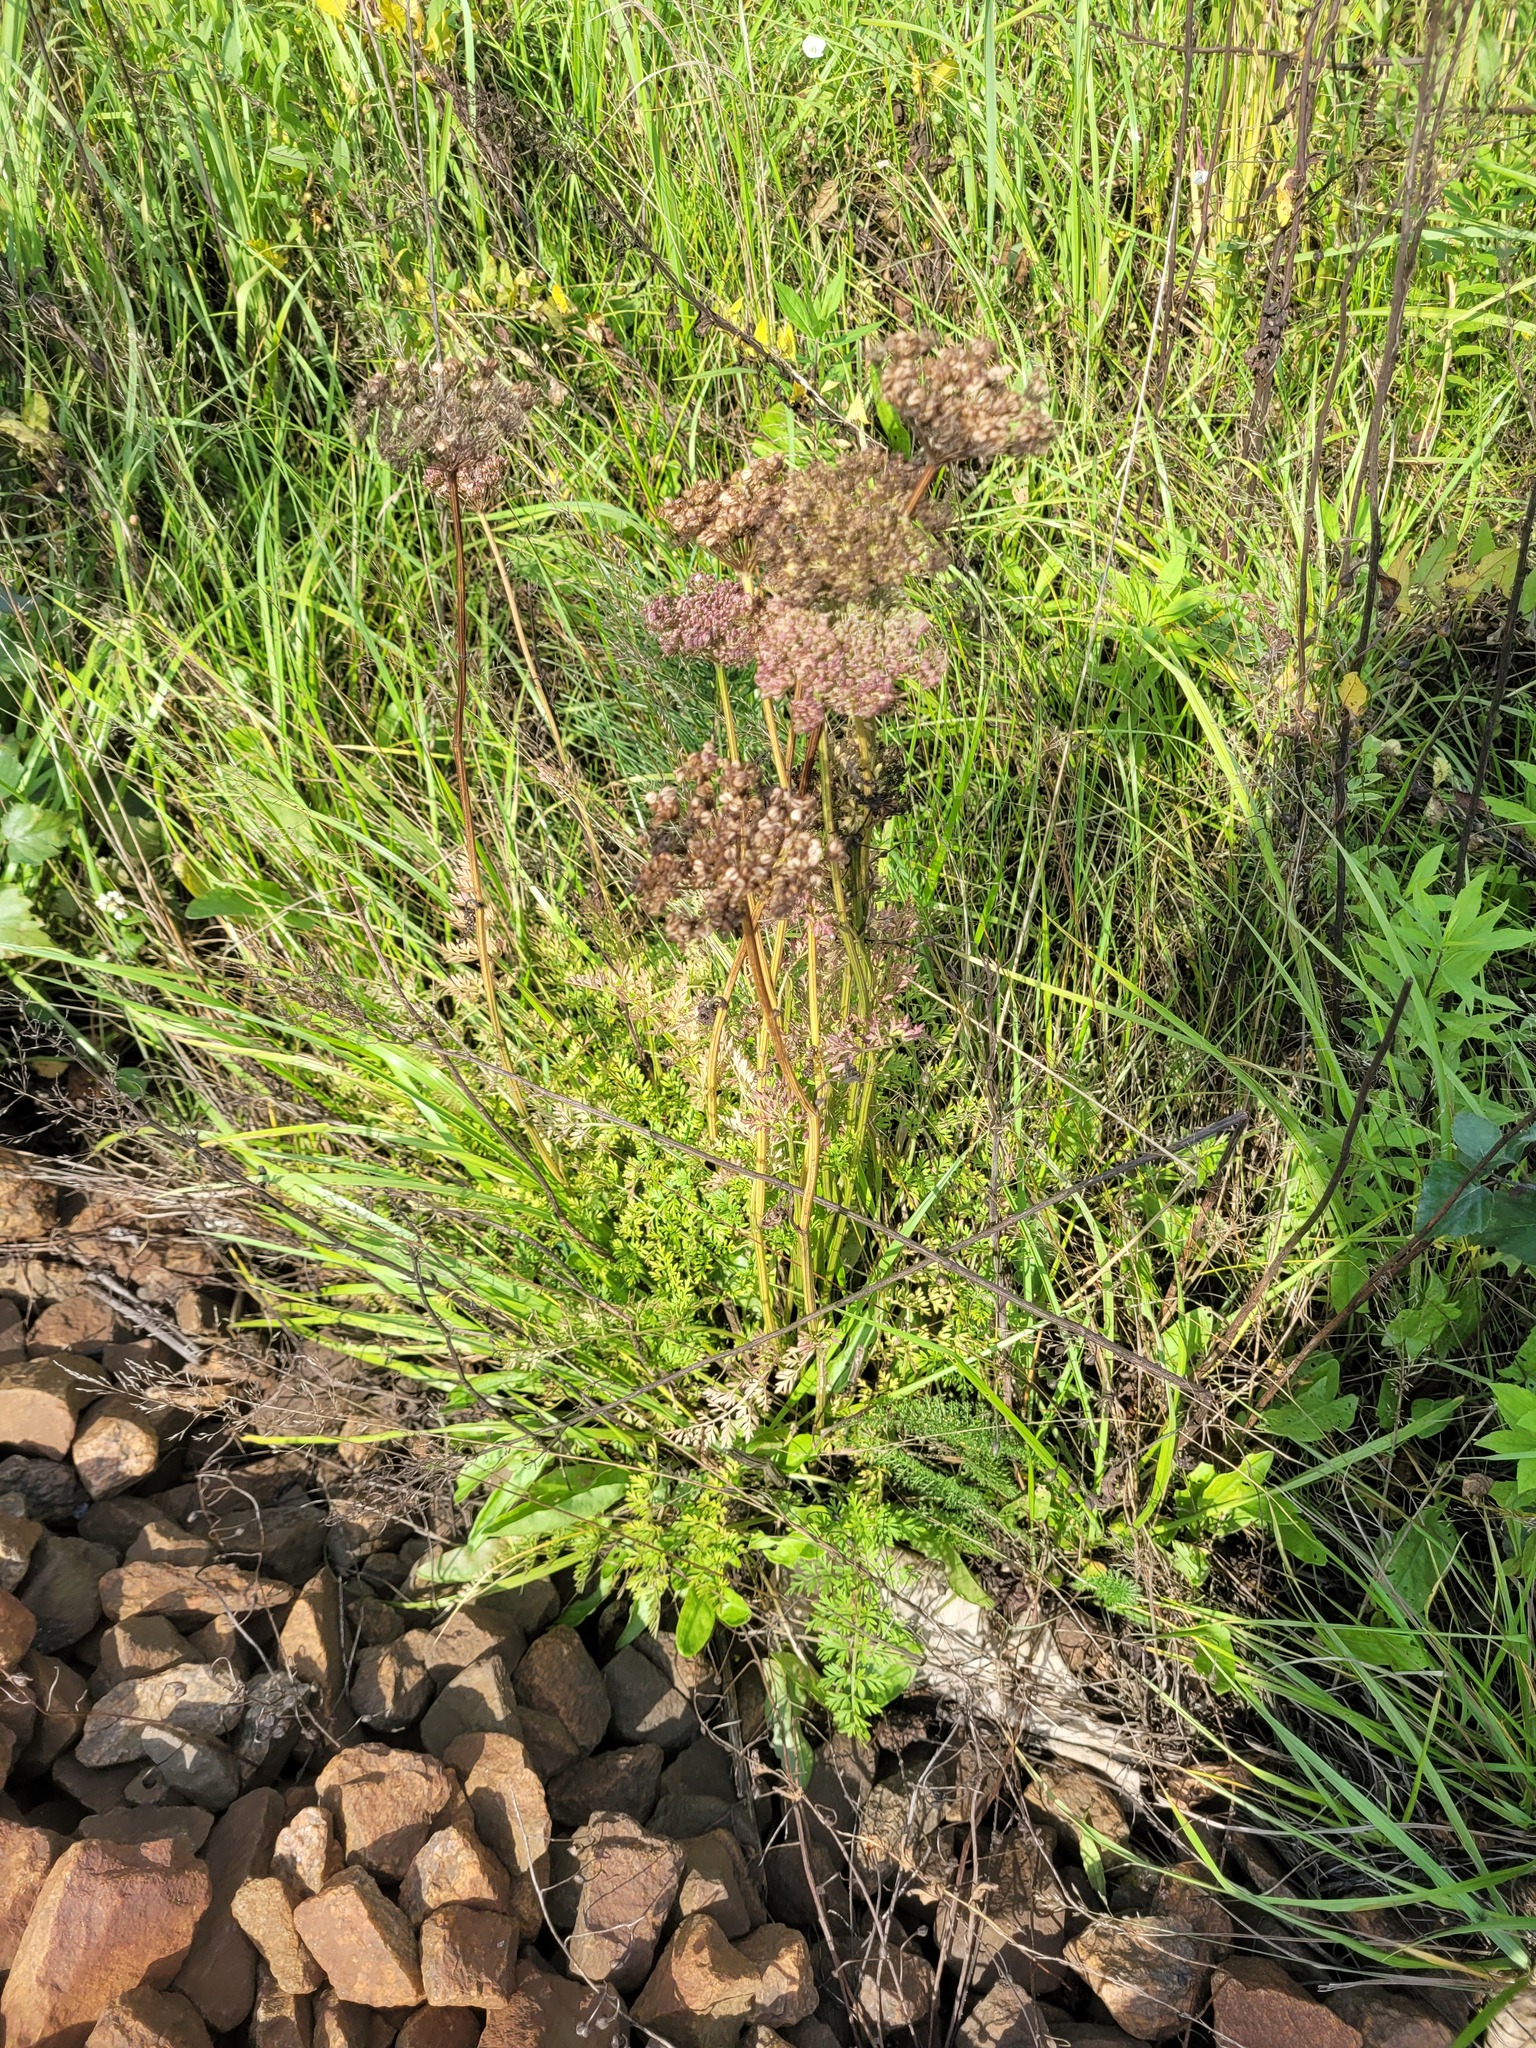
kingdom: Plantae
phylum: Tracheophyta
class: Magnoliopsida
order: Apiales
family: Apiaceae
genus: Selinum
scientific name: Selinum carvifolia
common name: Cambridge milk-parsley
